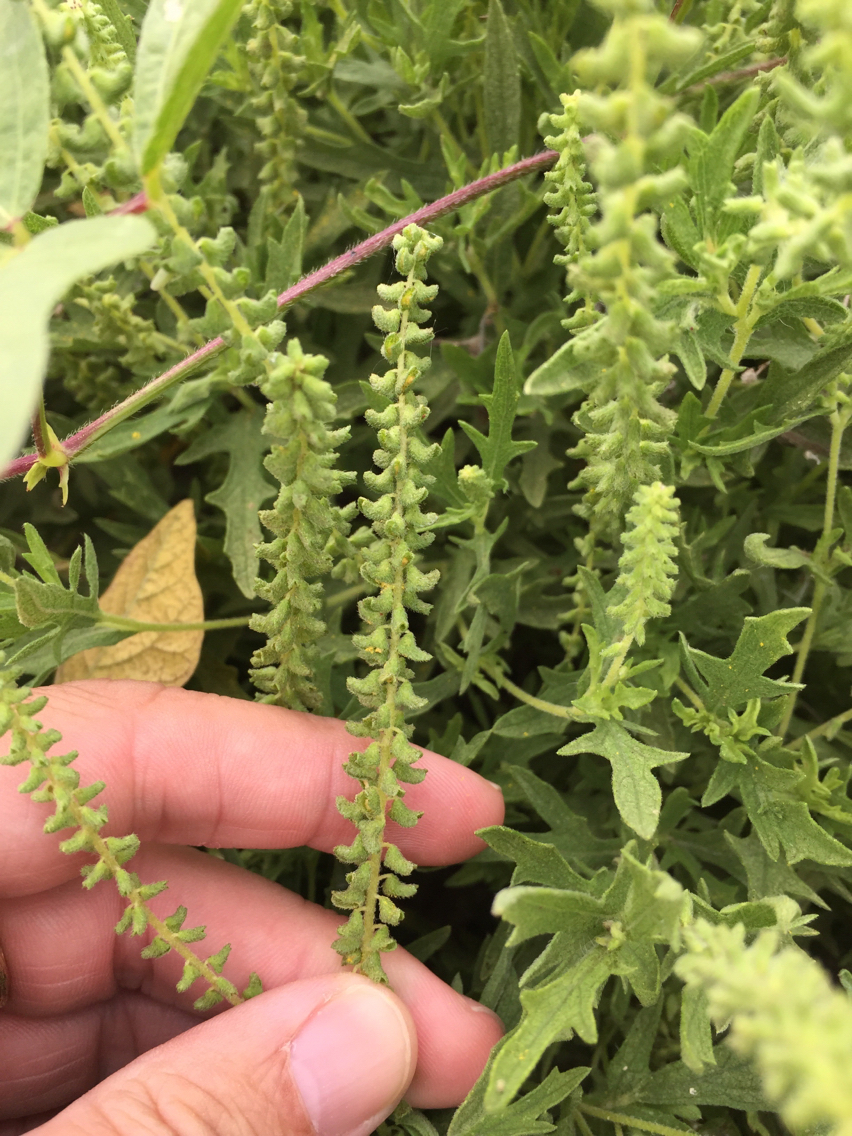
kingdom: Plantae
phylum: Tracheophyta
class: Magnoliopsida
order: Asterales
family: Asteraceae
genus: Ambrosia
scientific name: Ambrosia psilostachya
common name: Perennial ragweed
